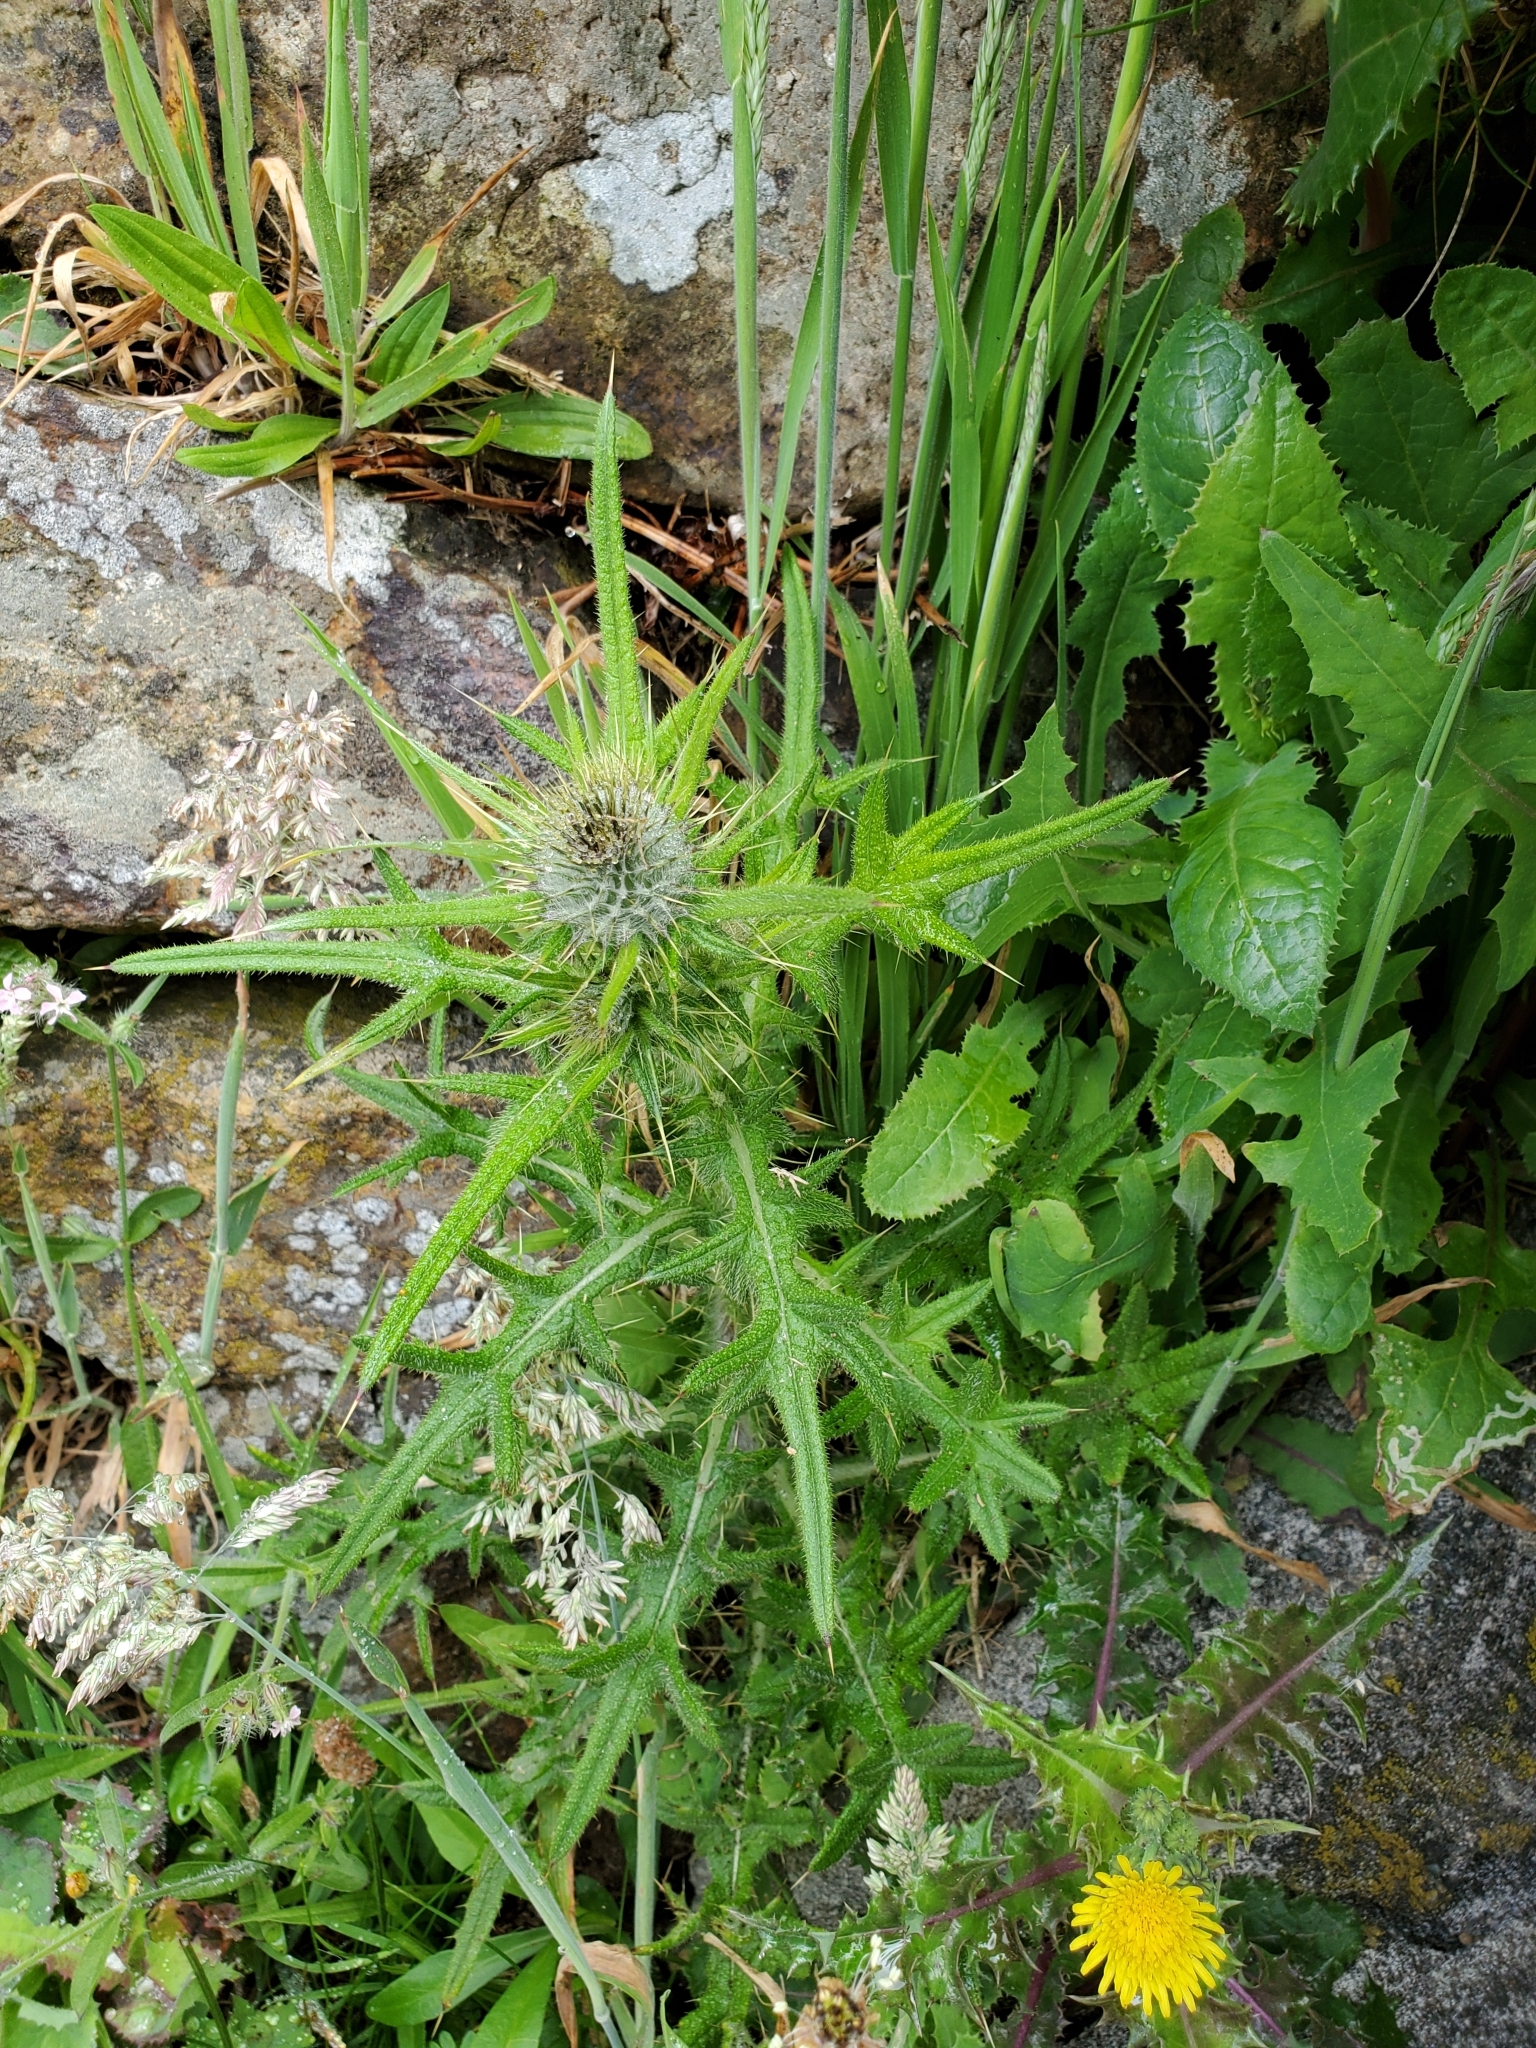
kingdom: Plantae
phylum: Tracheophyta
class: Magnoliopsida
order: Asterales
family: Asteraceae
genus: Cirsium
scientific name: Cirsium vulgare
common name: Bull thistle
